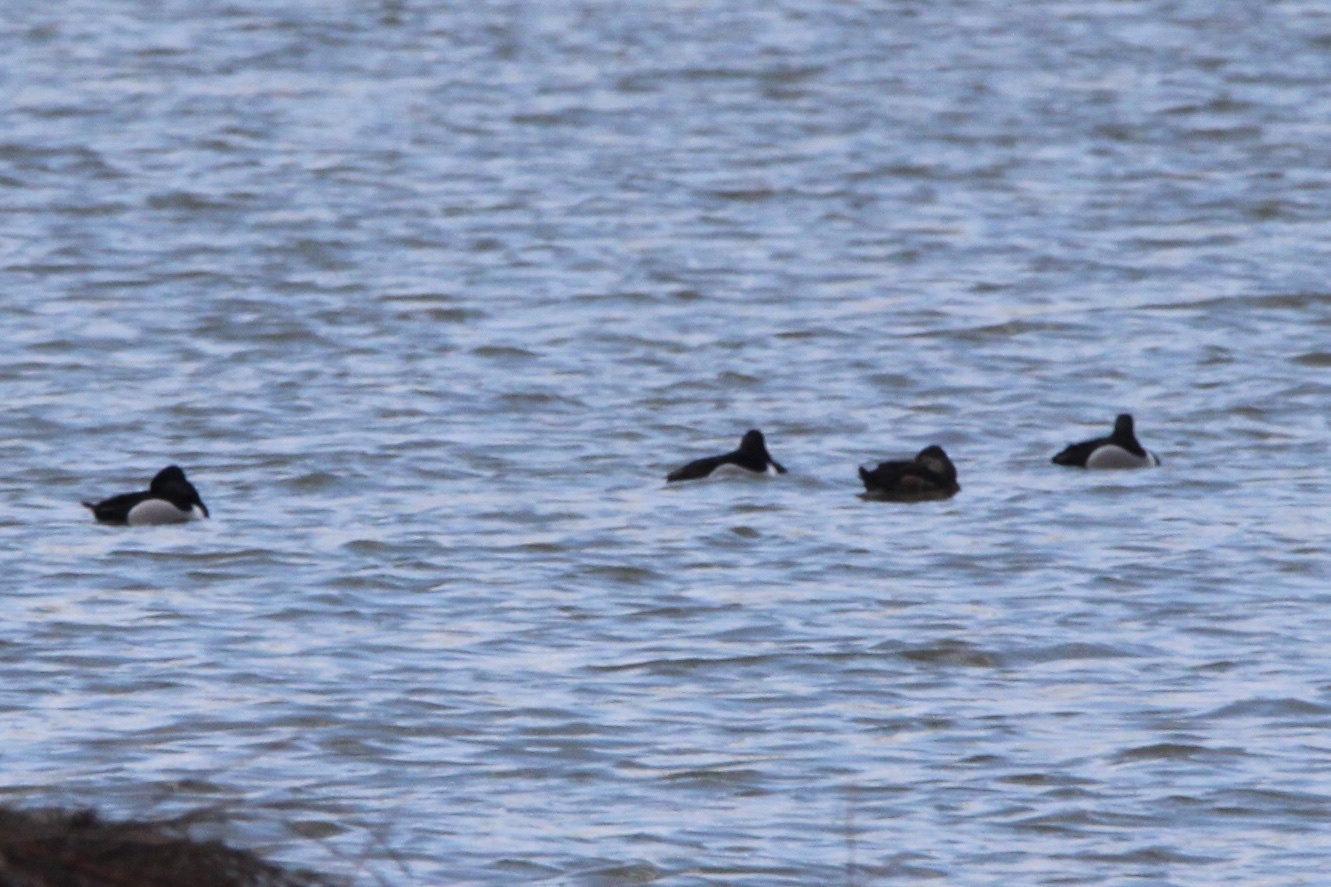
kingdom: Animalia
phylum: Chordata
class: Aves
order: Anseriformes
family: Anatidae
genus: Aythya
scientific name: Aythya collaris
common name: Ring-necked duck
